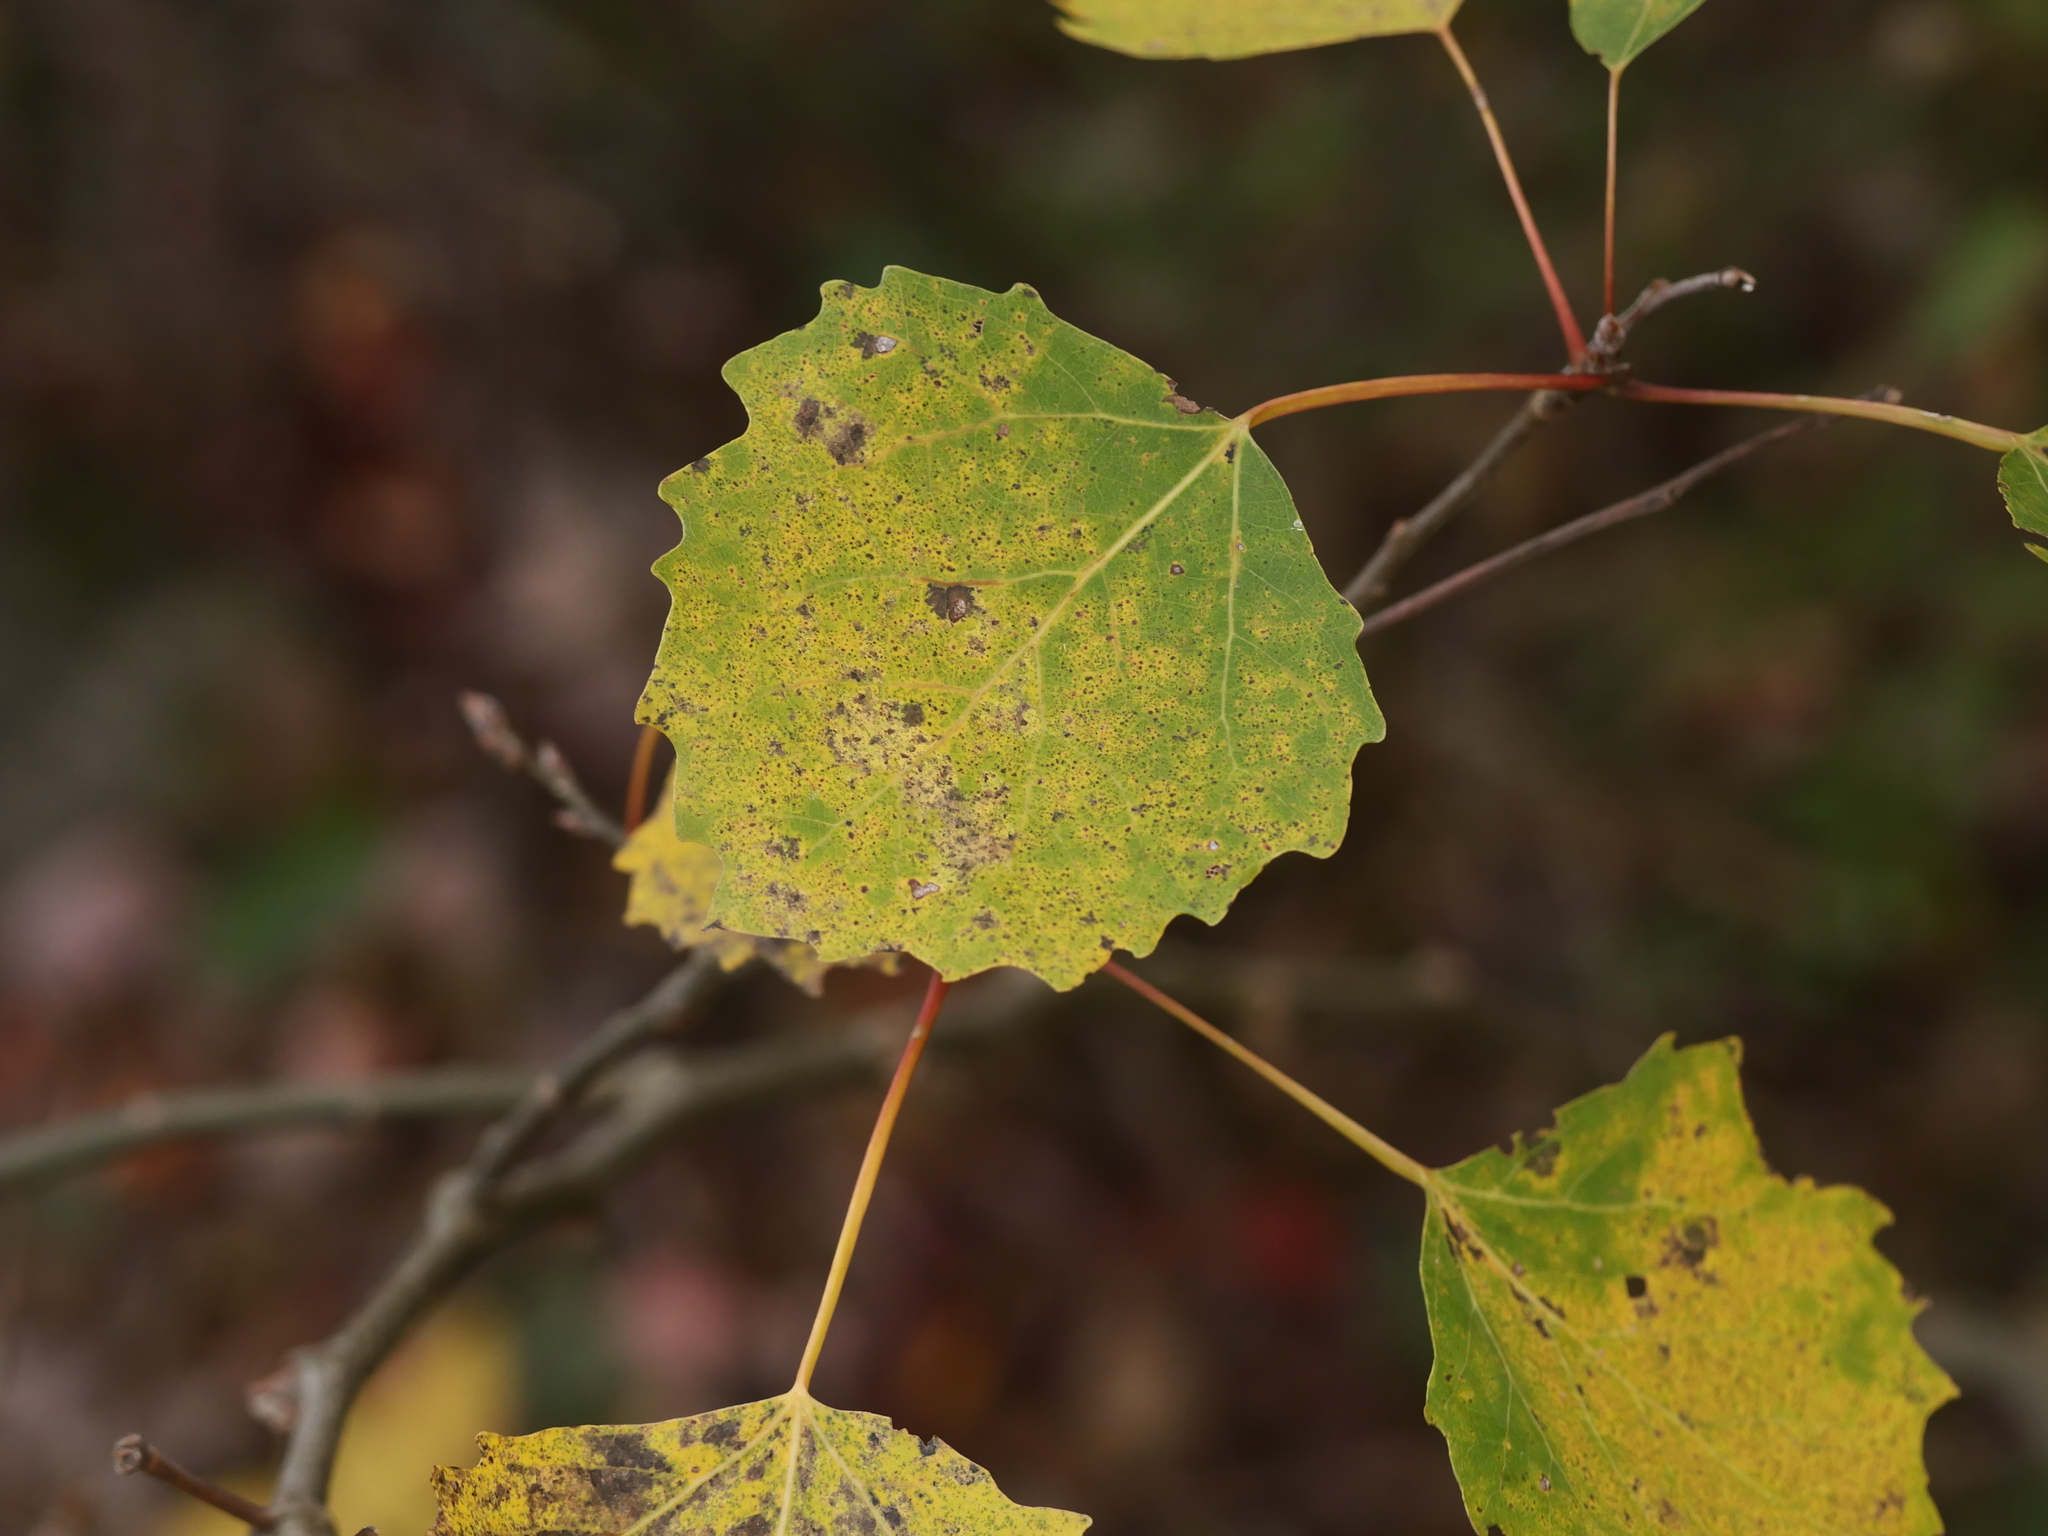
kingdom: Plantae
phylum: Tracheophyta
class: Magnoliopsida
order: Malpighiales
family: Salicaceae
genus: Populus
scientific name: Populus grandidentata
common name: Bigtooth aspen
